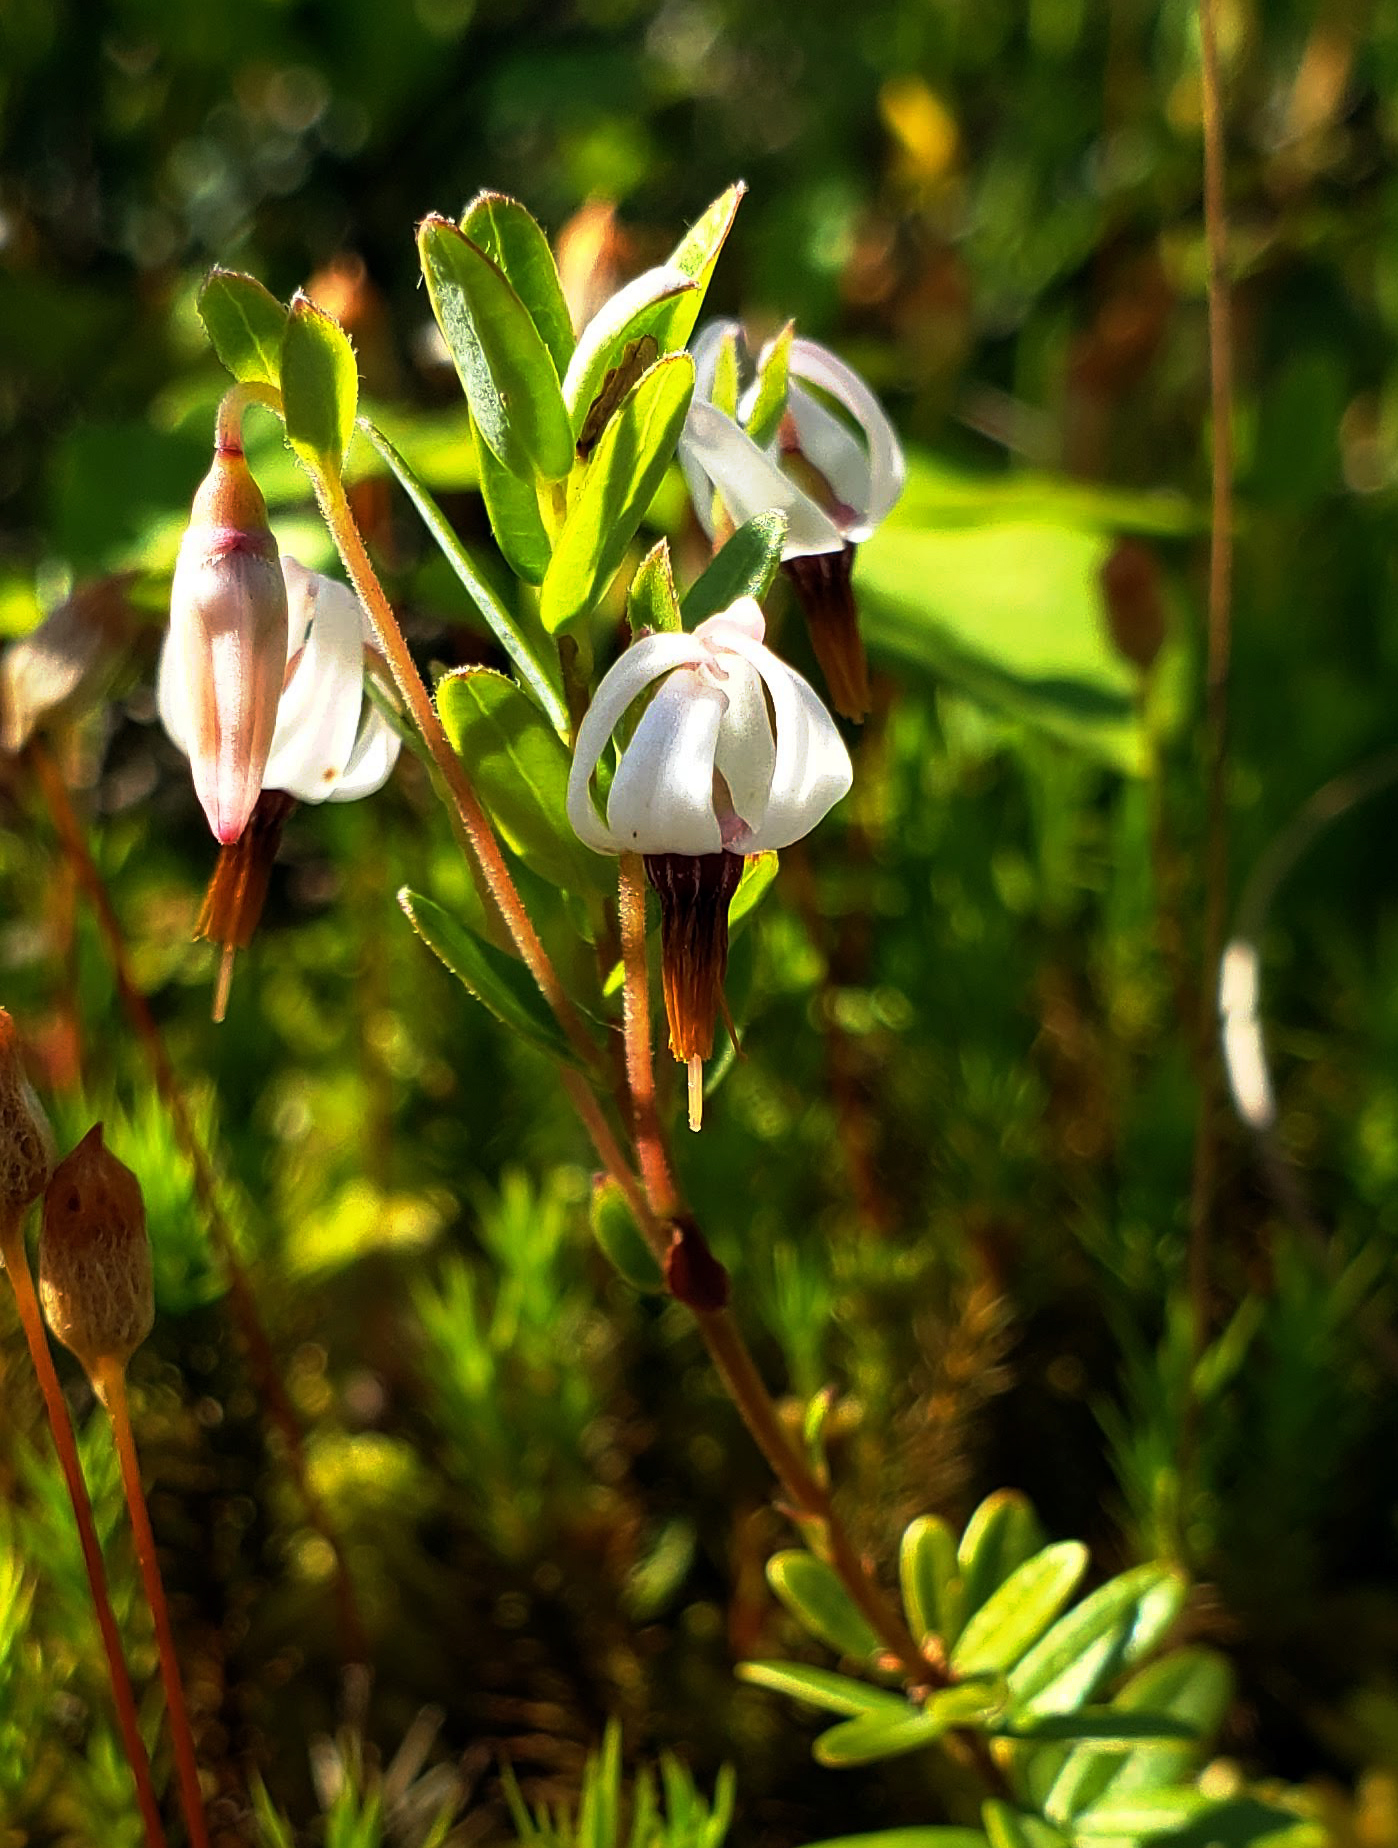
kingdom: Plantae
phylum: Tracheophyta
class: Magnoliopsida
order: Ericales
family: Ericaceae
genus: Vaccinium
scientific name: Vaccinium macrocarpon
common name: American cranberry
